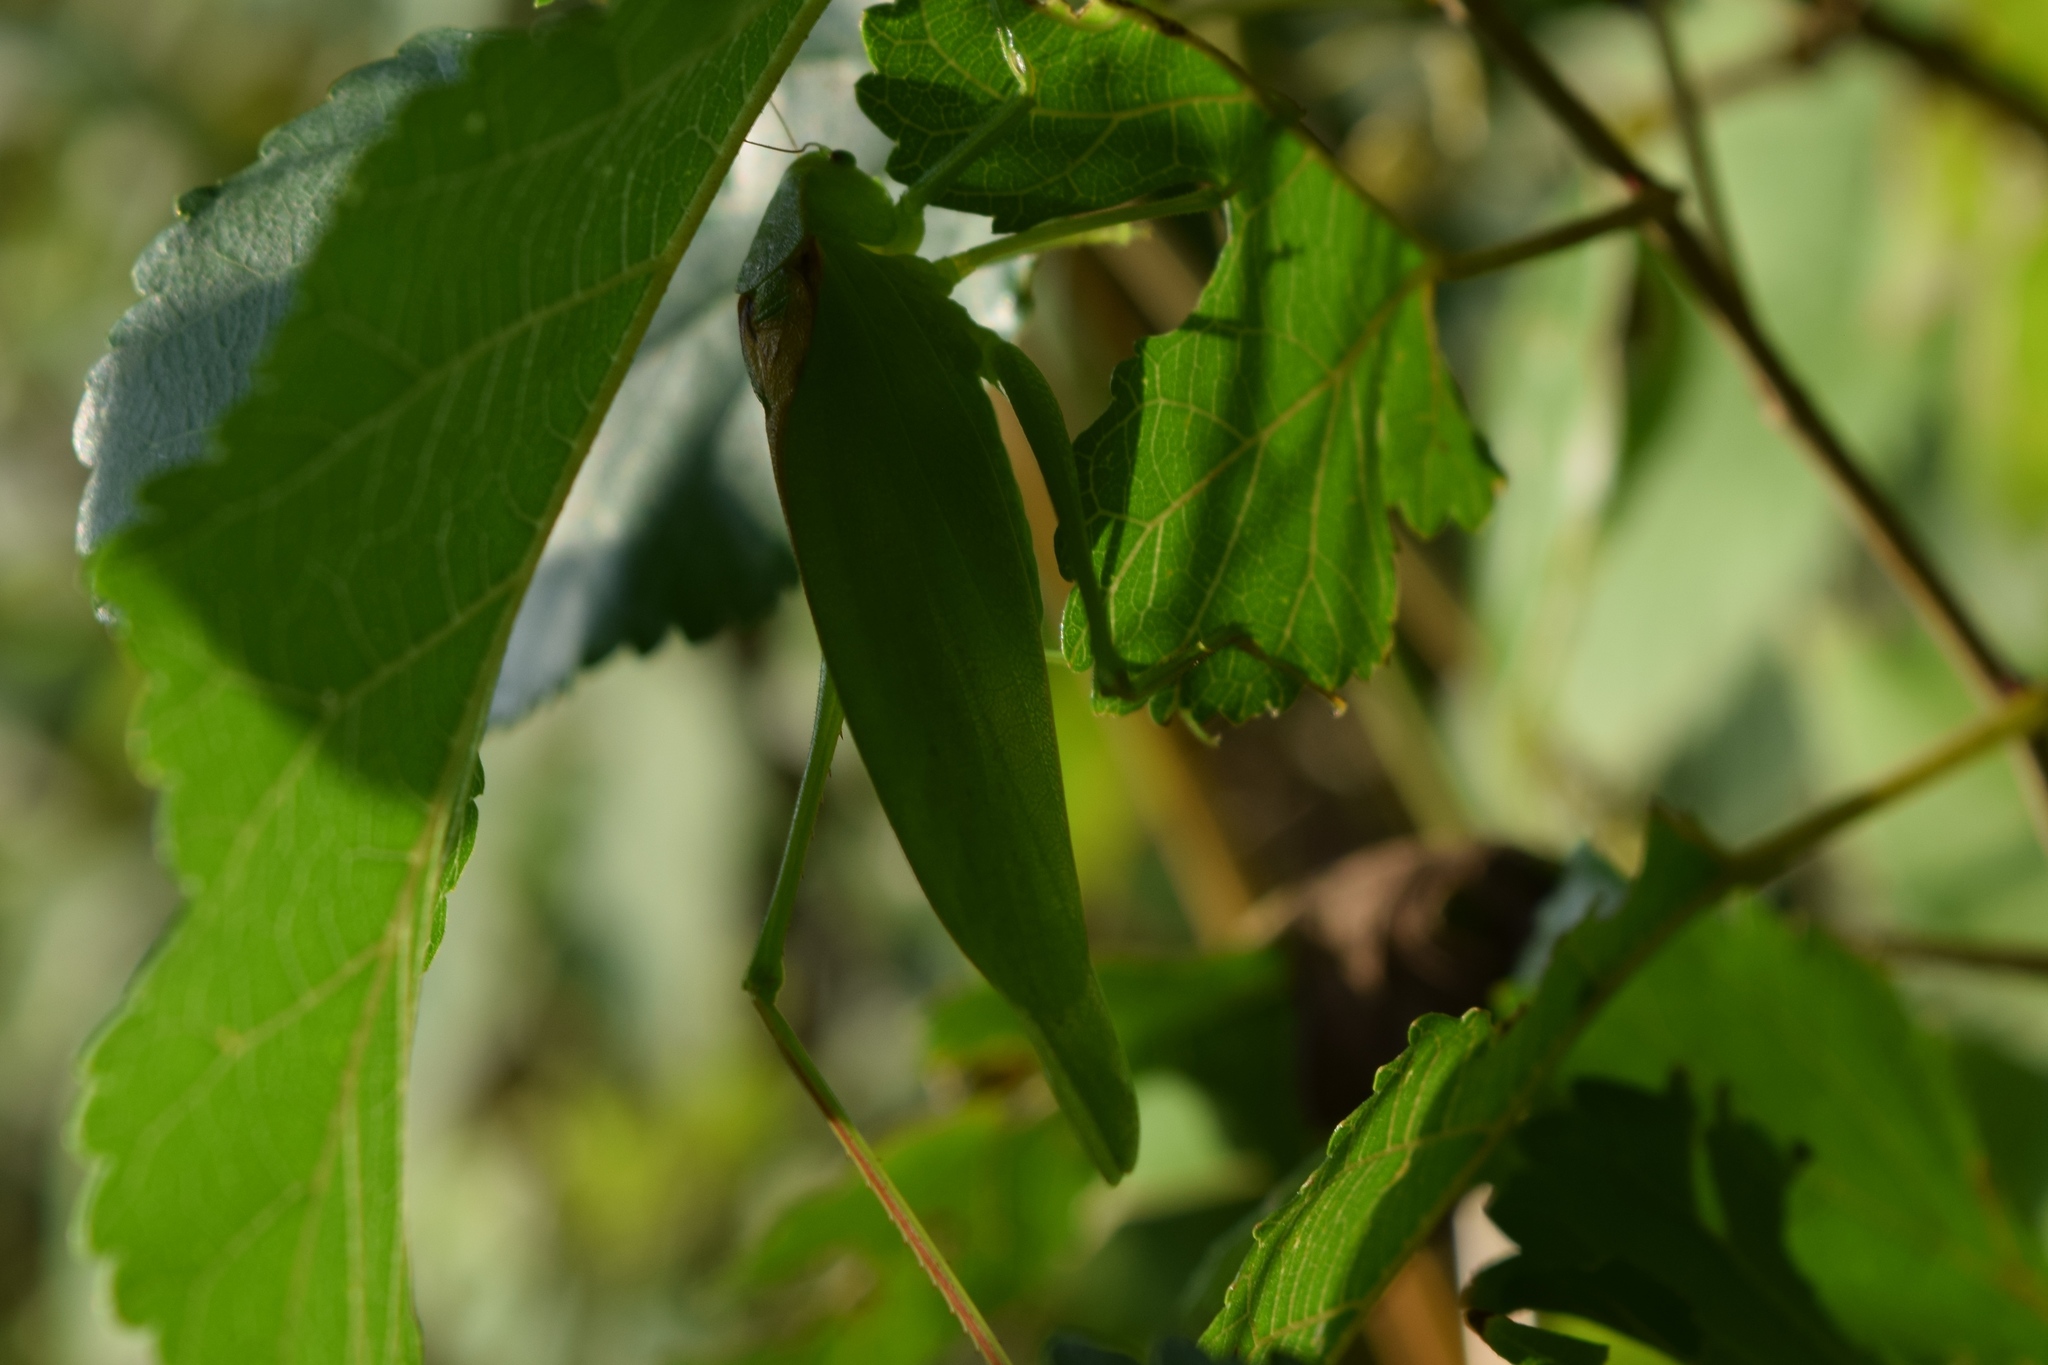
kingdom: Animalia
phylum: Arthropoda
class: Insecta
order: Orthoptera
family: Tettigoniidae
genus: Amblycorypha
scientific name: Amblycorypha
